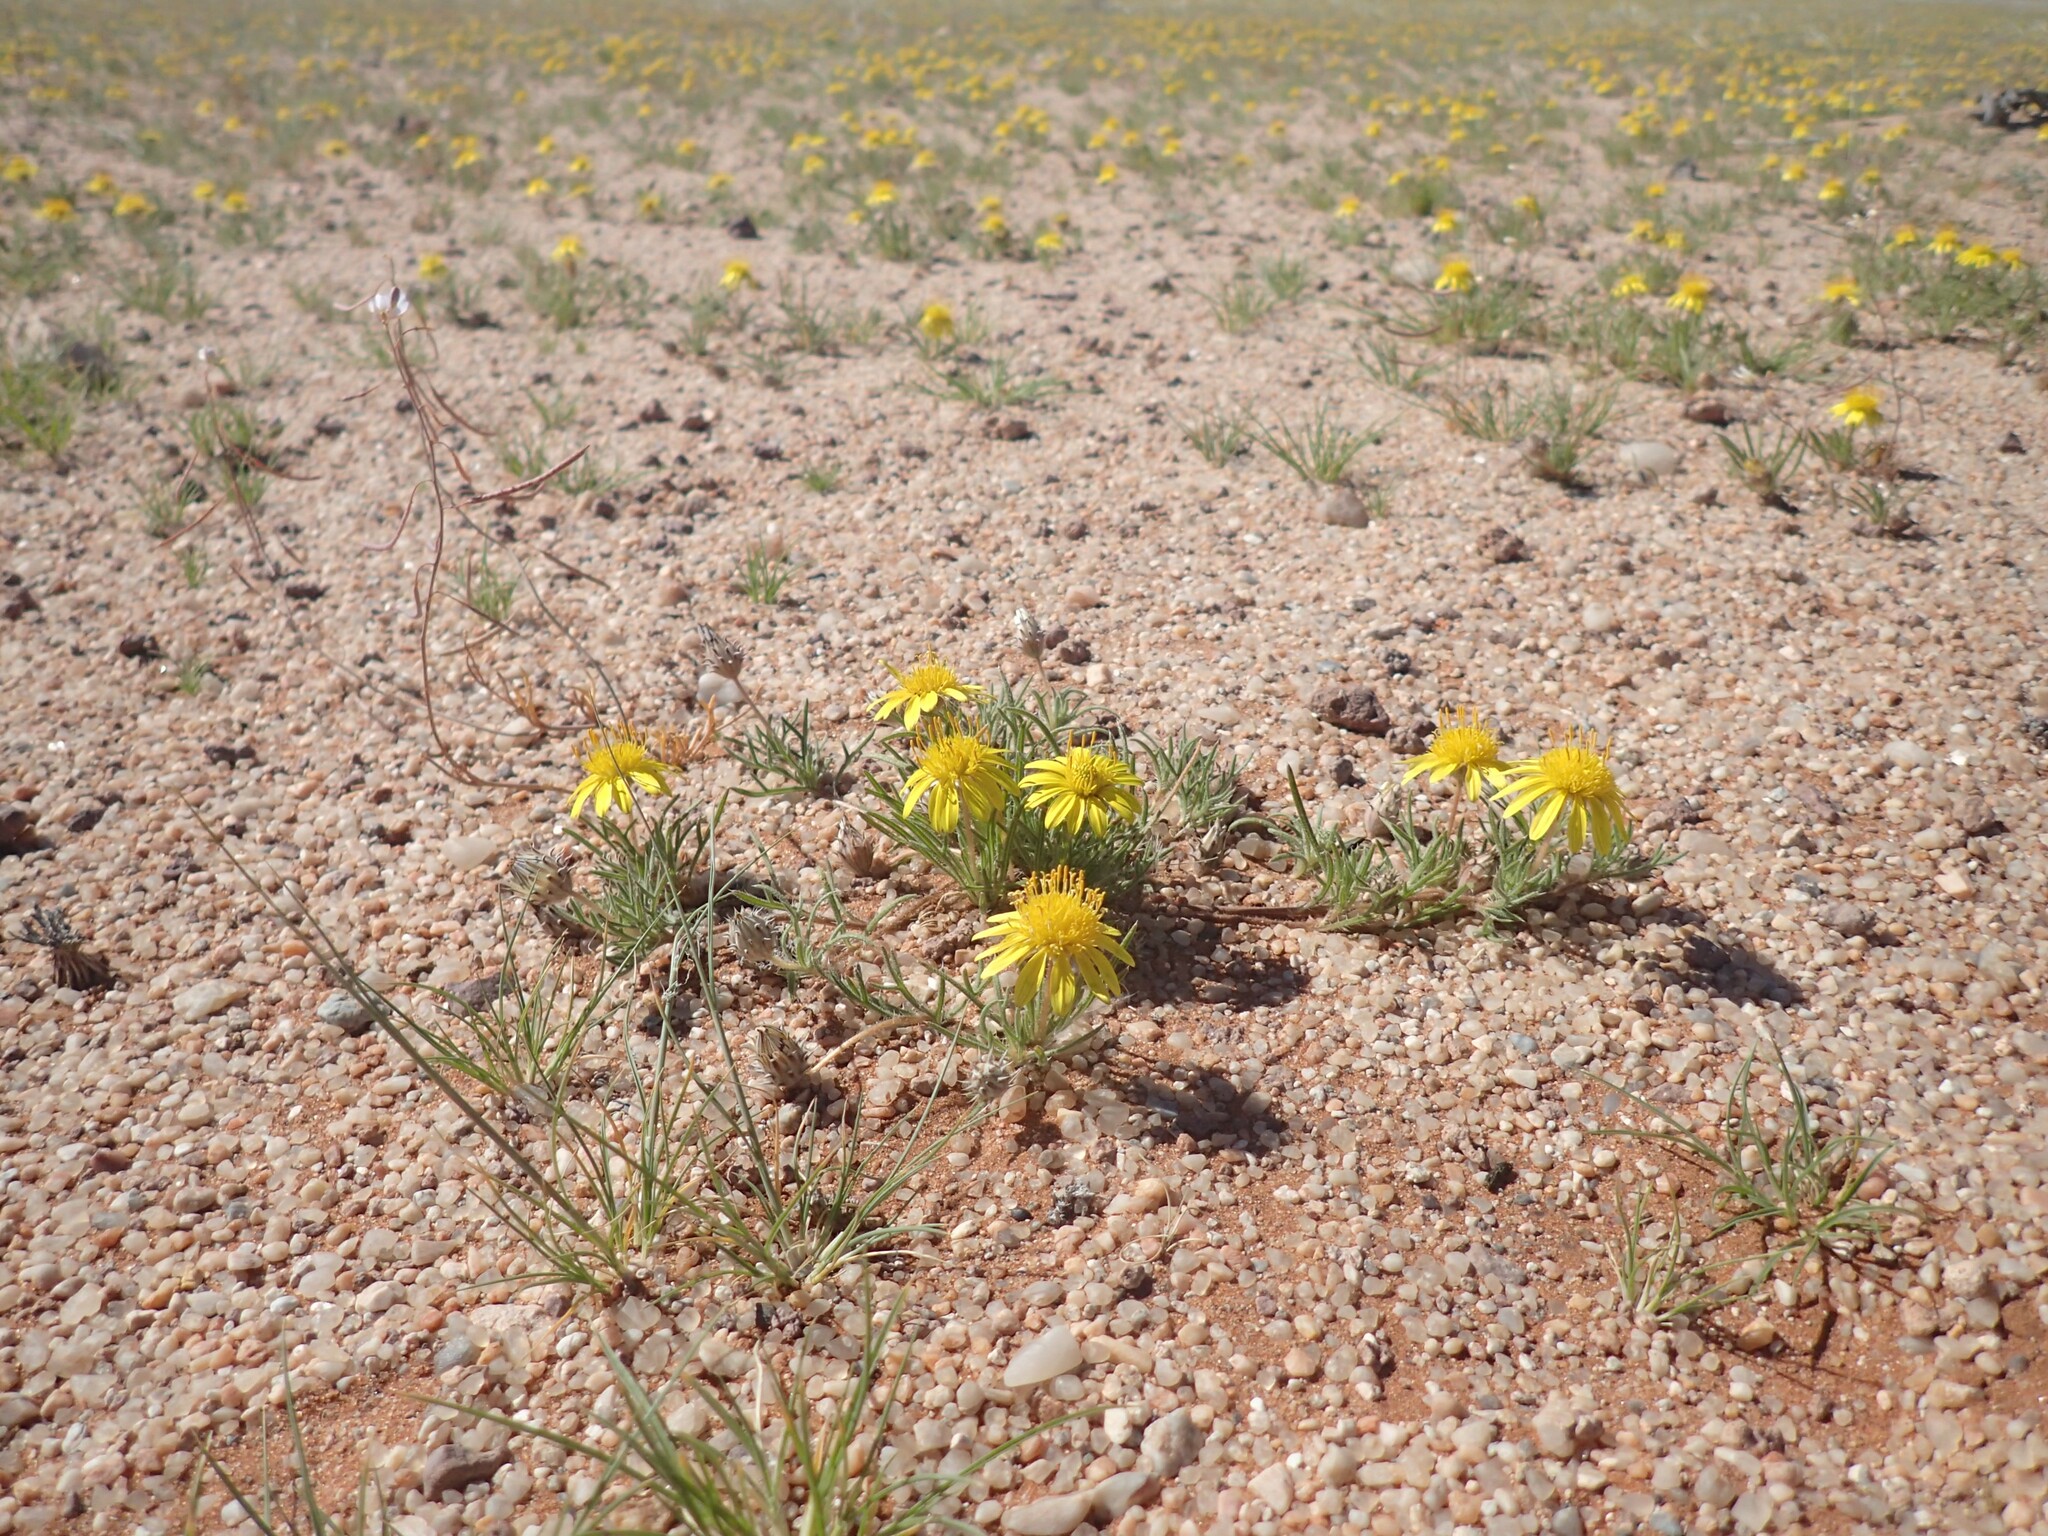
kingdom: Plantae
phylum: Tracheophyta
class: Magnoliopsida
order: Asterales
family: Asteraceae
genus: Hirpicium
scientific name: Hirpicium echinus
